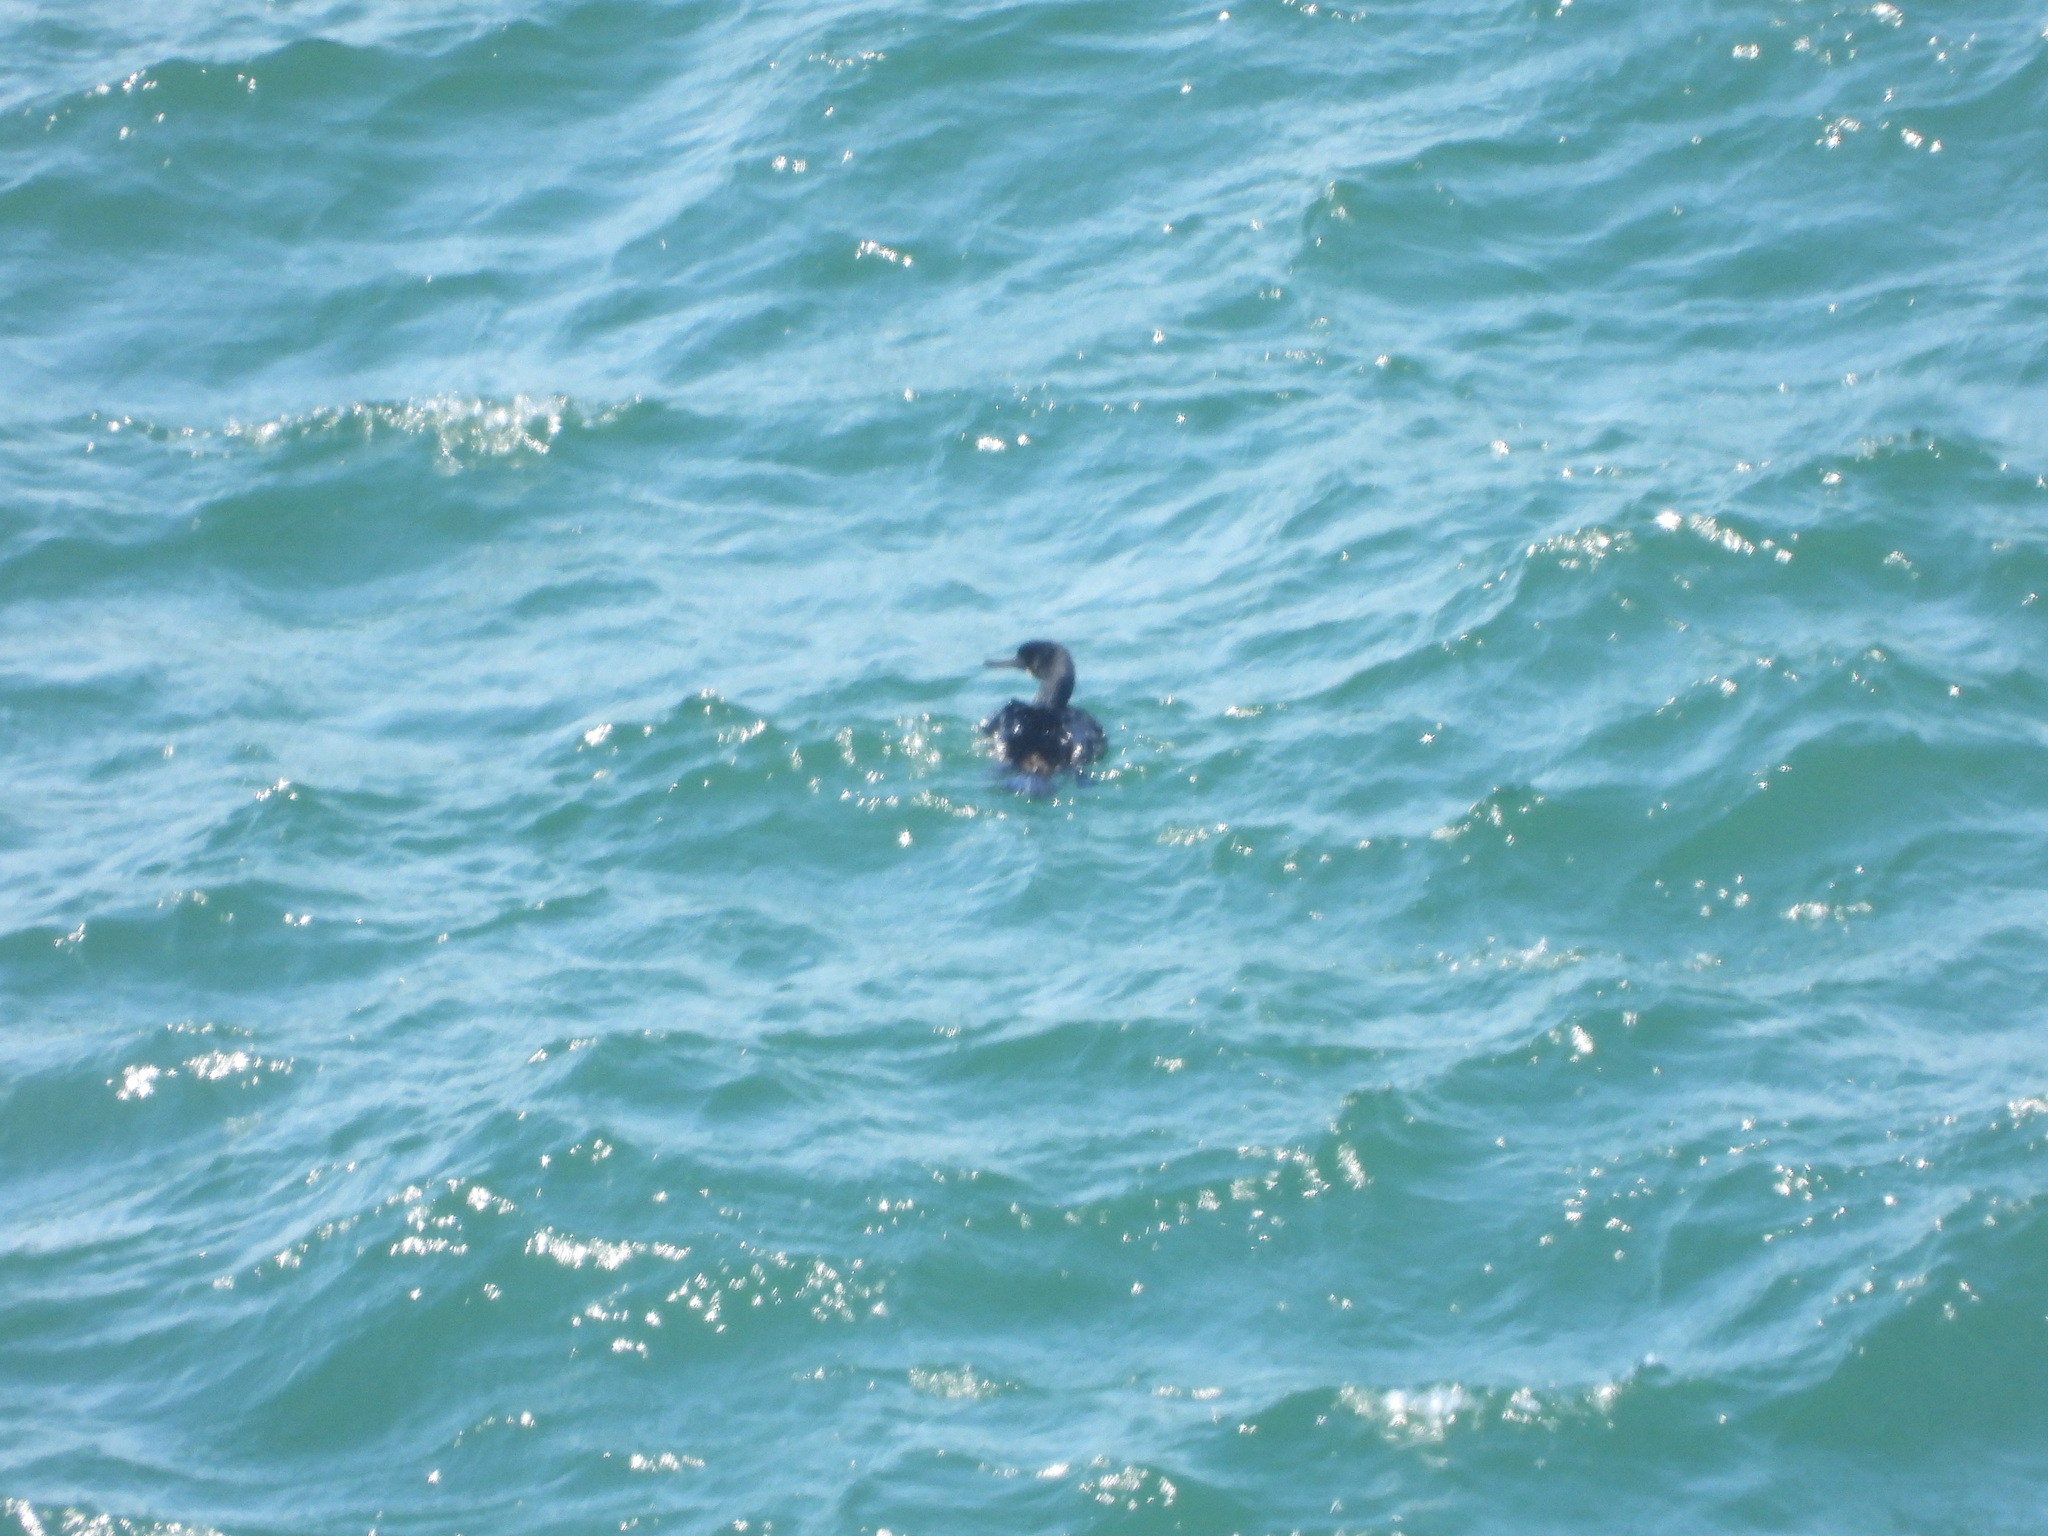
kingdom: Animalia
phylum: Chordata
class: Aves
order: Suliformes
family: Phalacrocoracidae
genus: Phalacrocorax
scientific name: Phalacrocorax pelagicus
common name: Pelagic cormorant
